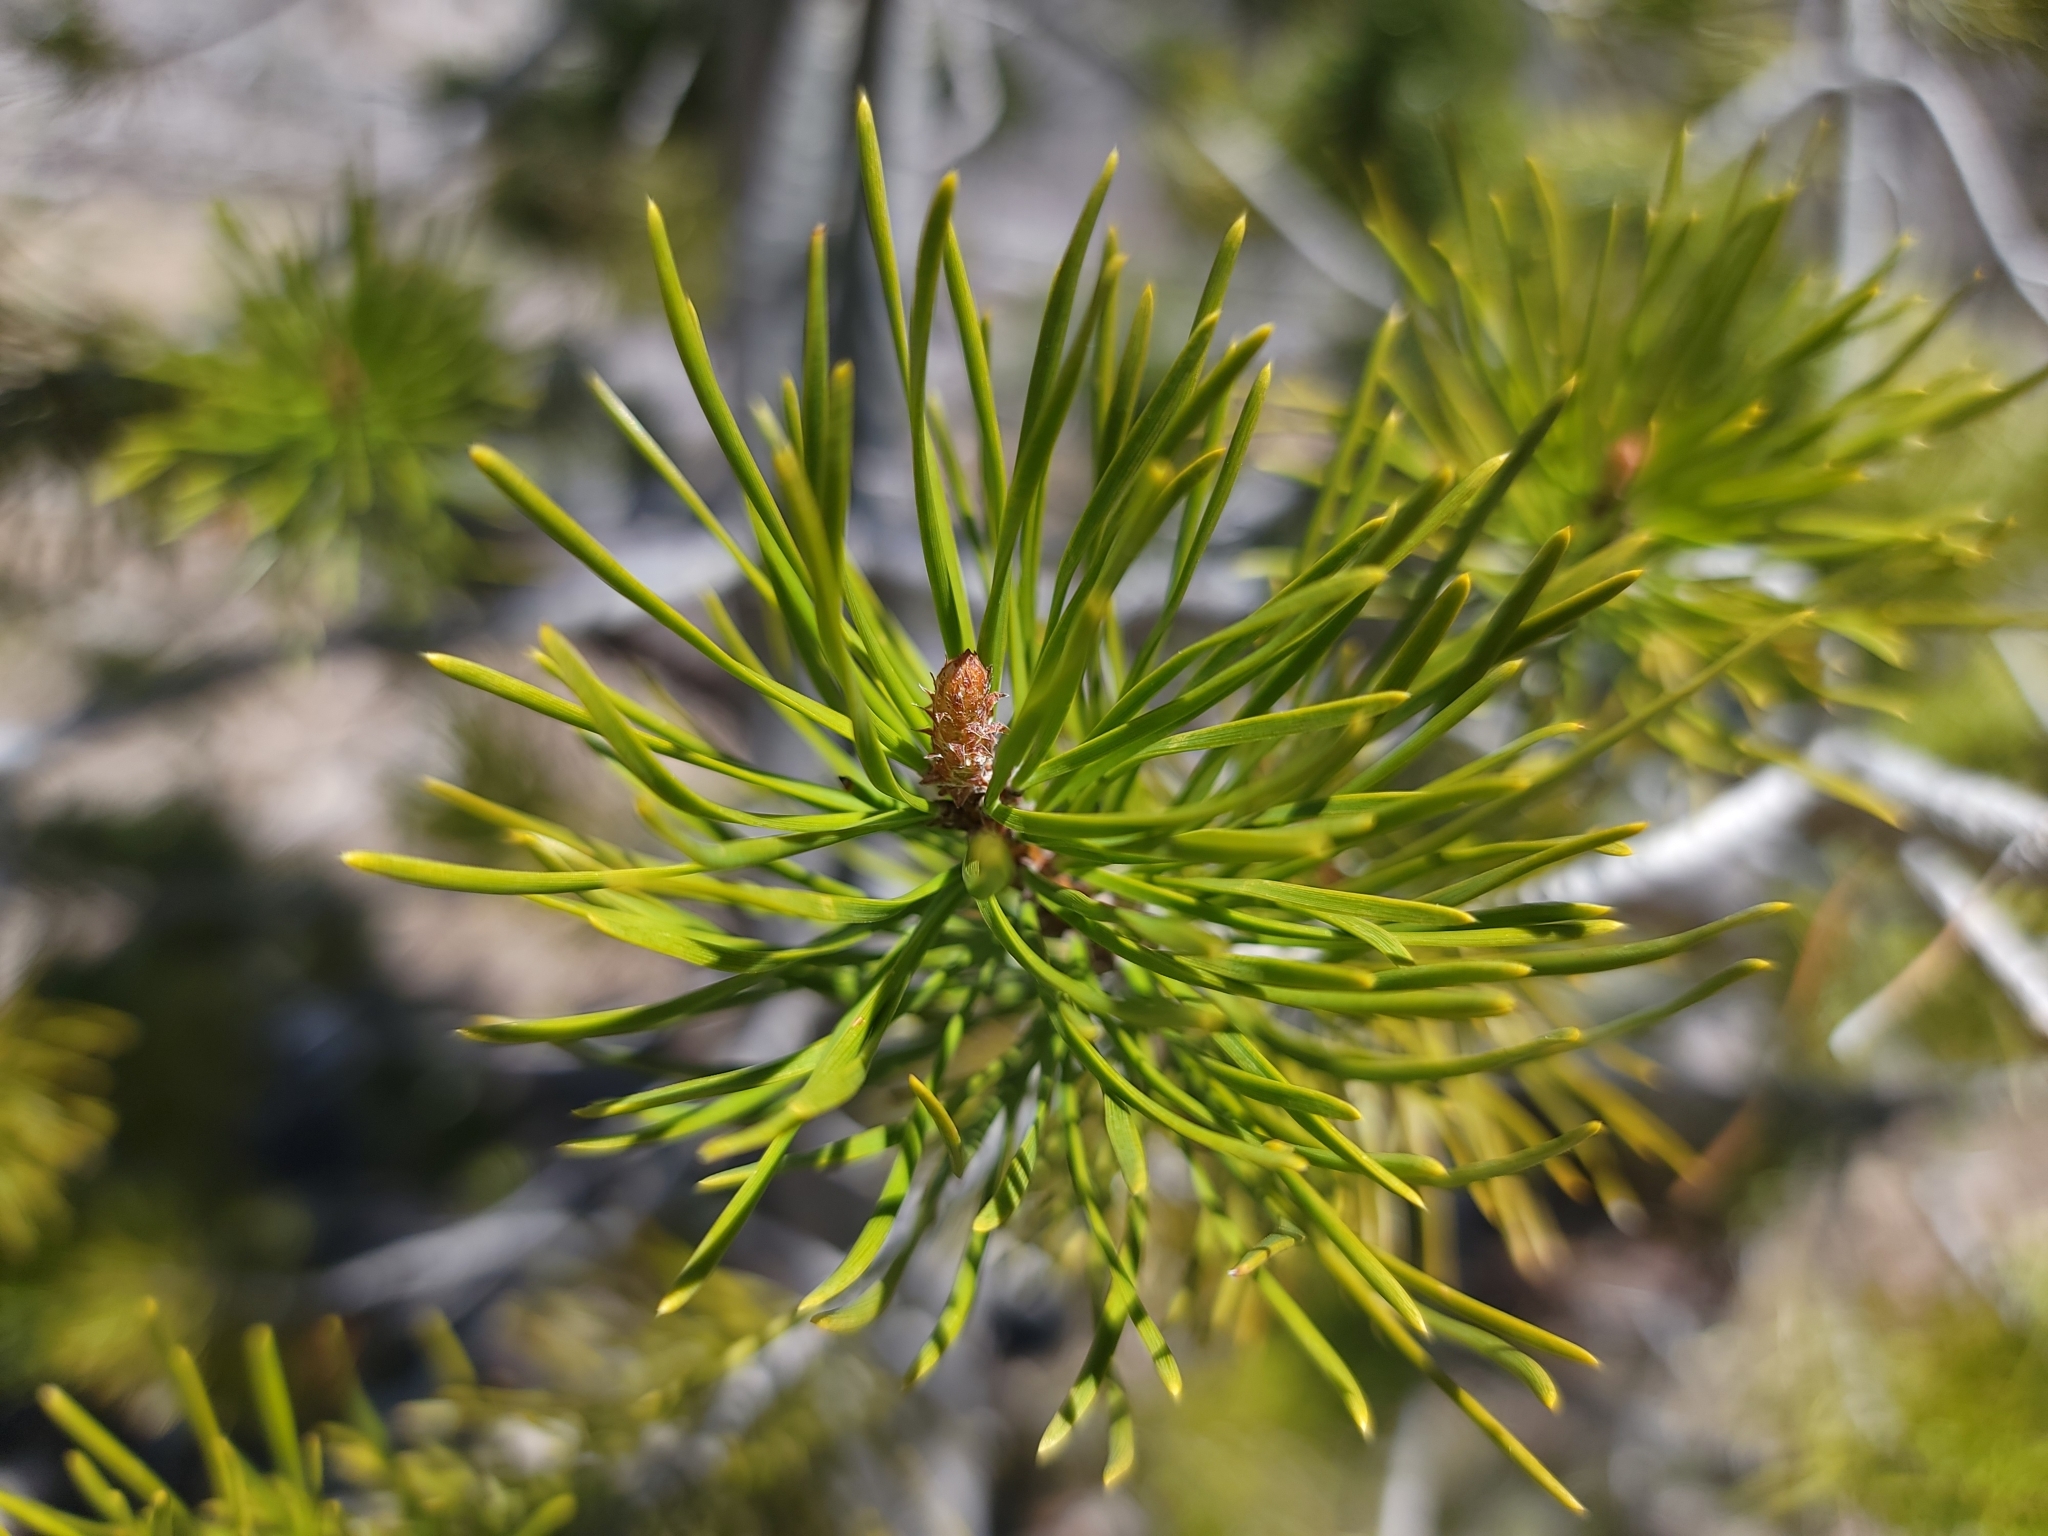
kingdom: Plantae
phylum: Tracheophyta
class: Pinopsida
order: Pinales
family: Pinaceae
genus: Pinus
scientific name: Pinus contorta
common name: Lodgepole pine
